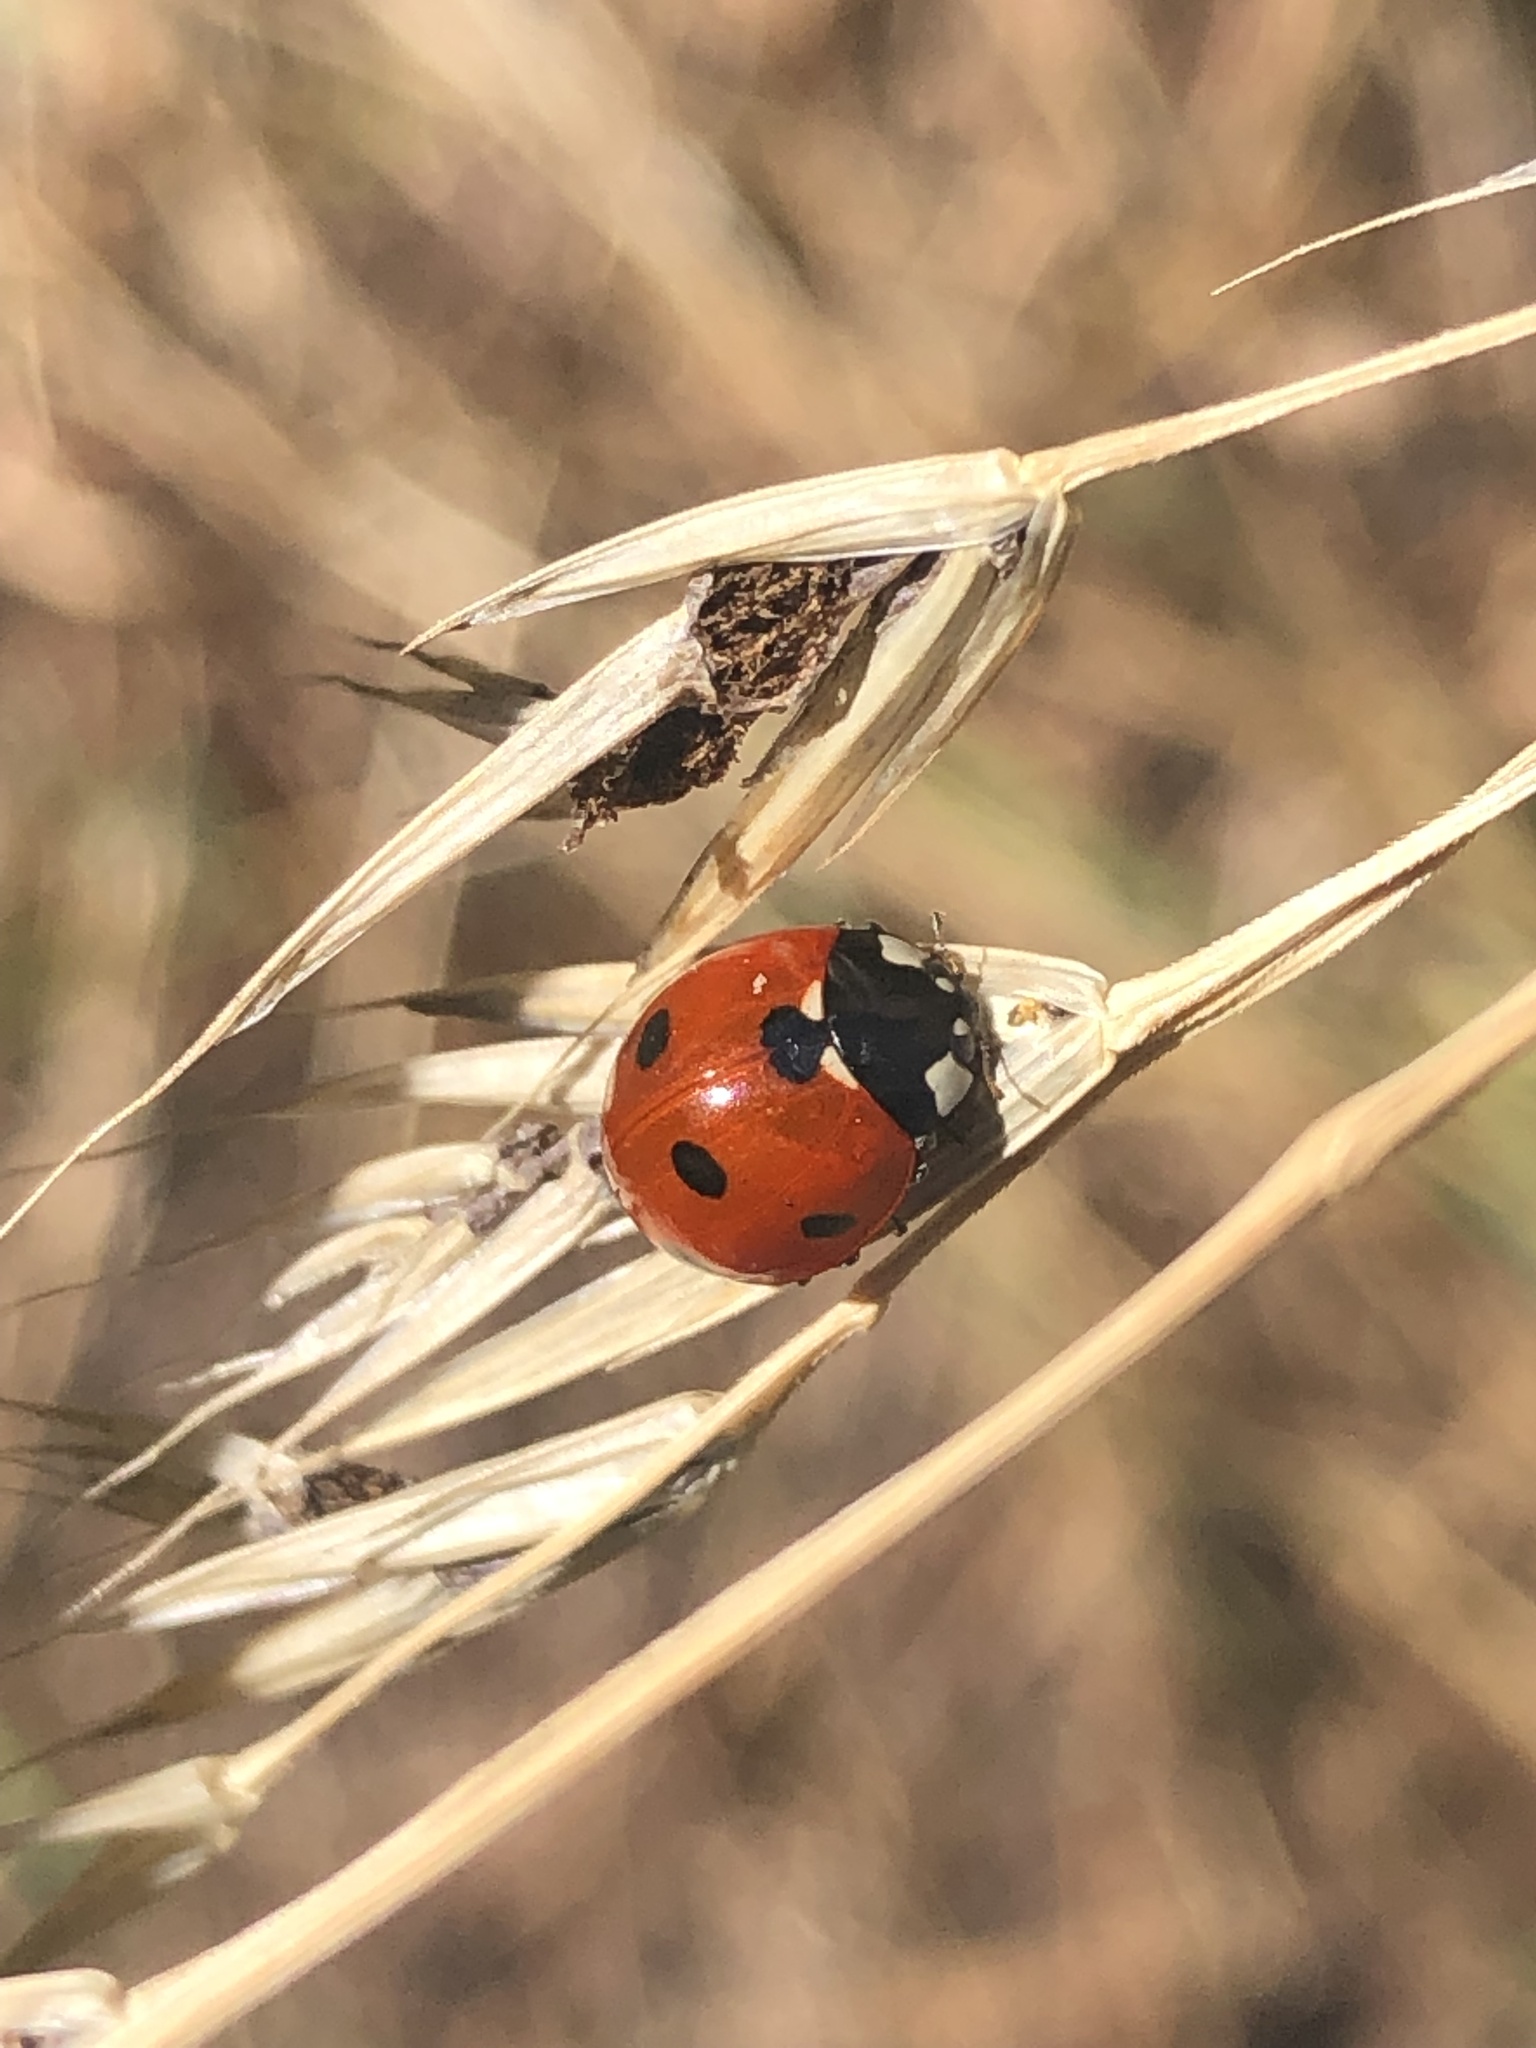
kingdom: Animalia
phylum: Arthropoda
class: Insecta
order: Coleoptera
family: Coccinellidae
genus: Coccinella
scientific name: Coccinella septempunctata
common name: Sevenspotted lady beetle
